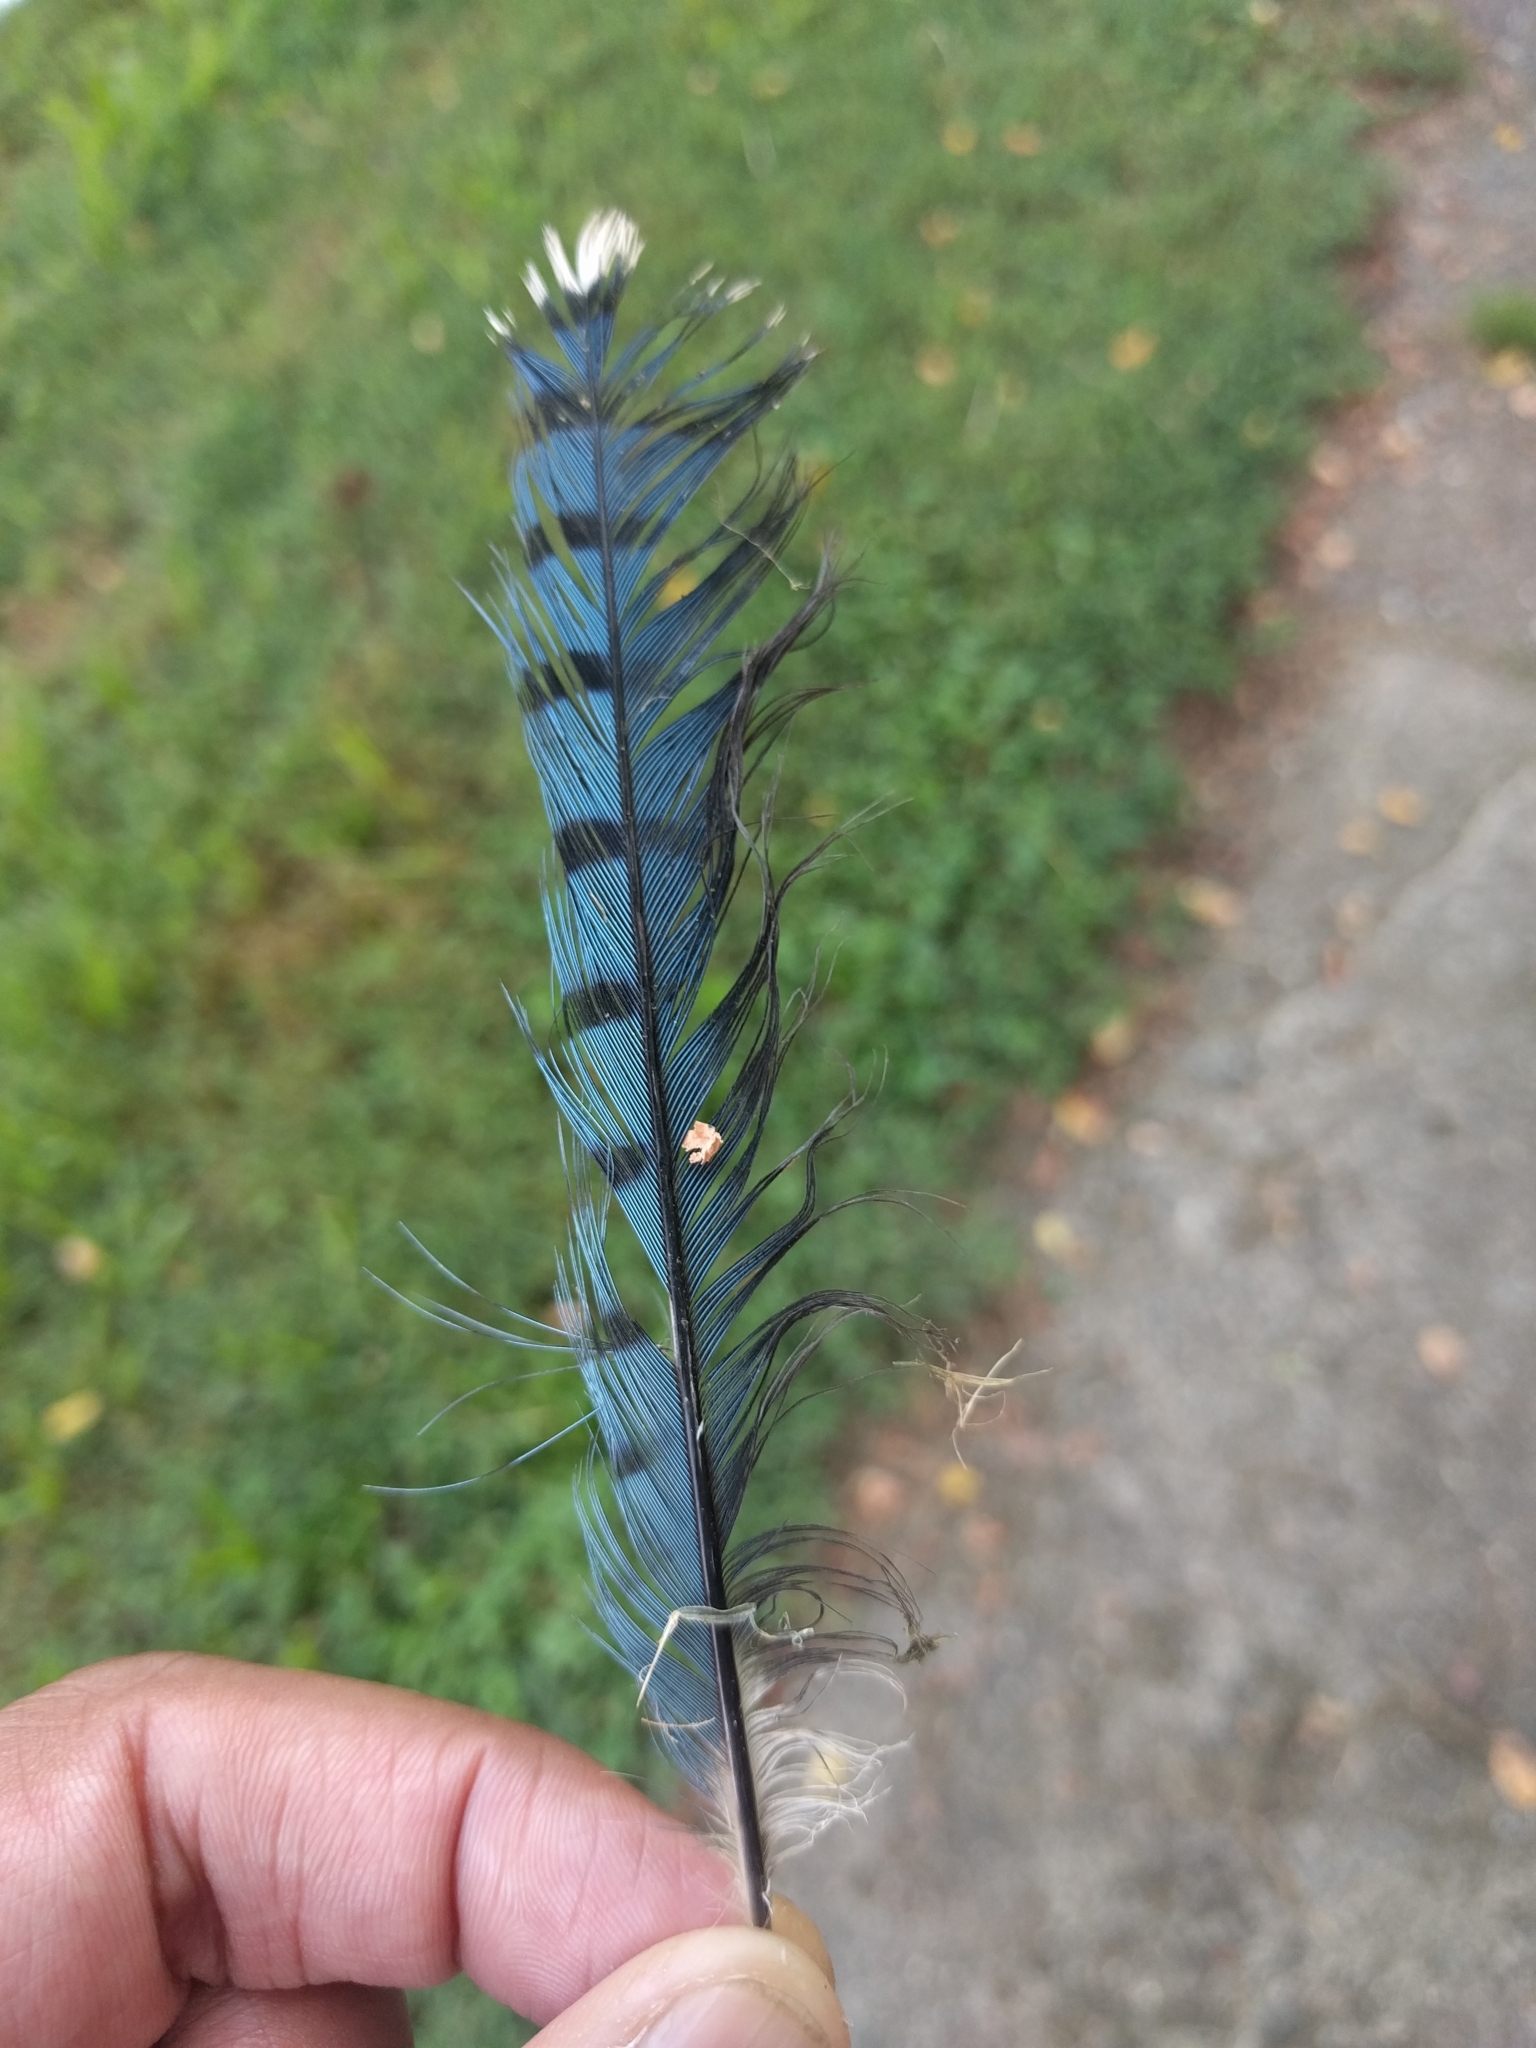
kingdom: Animalia
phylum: Chordata
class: Aves
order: Passeriformes
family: Corvidae
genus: Cyanocitta
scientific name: Cyanocitta cristata
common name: Blue jay
